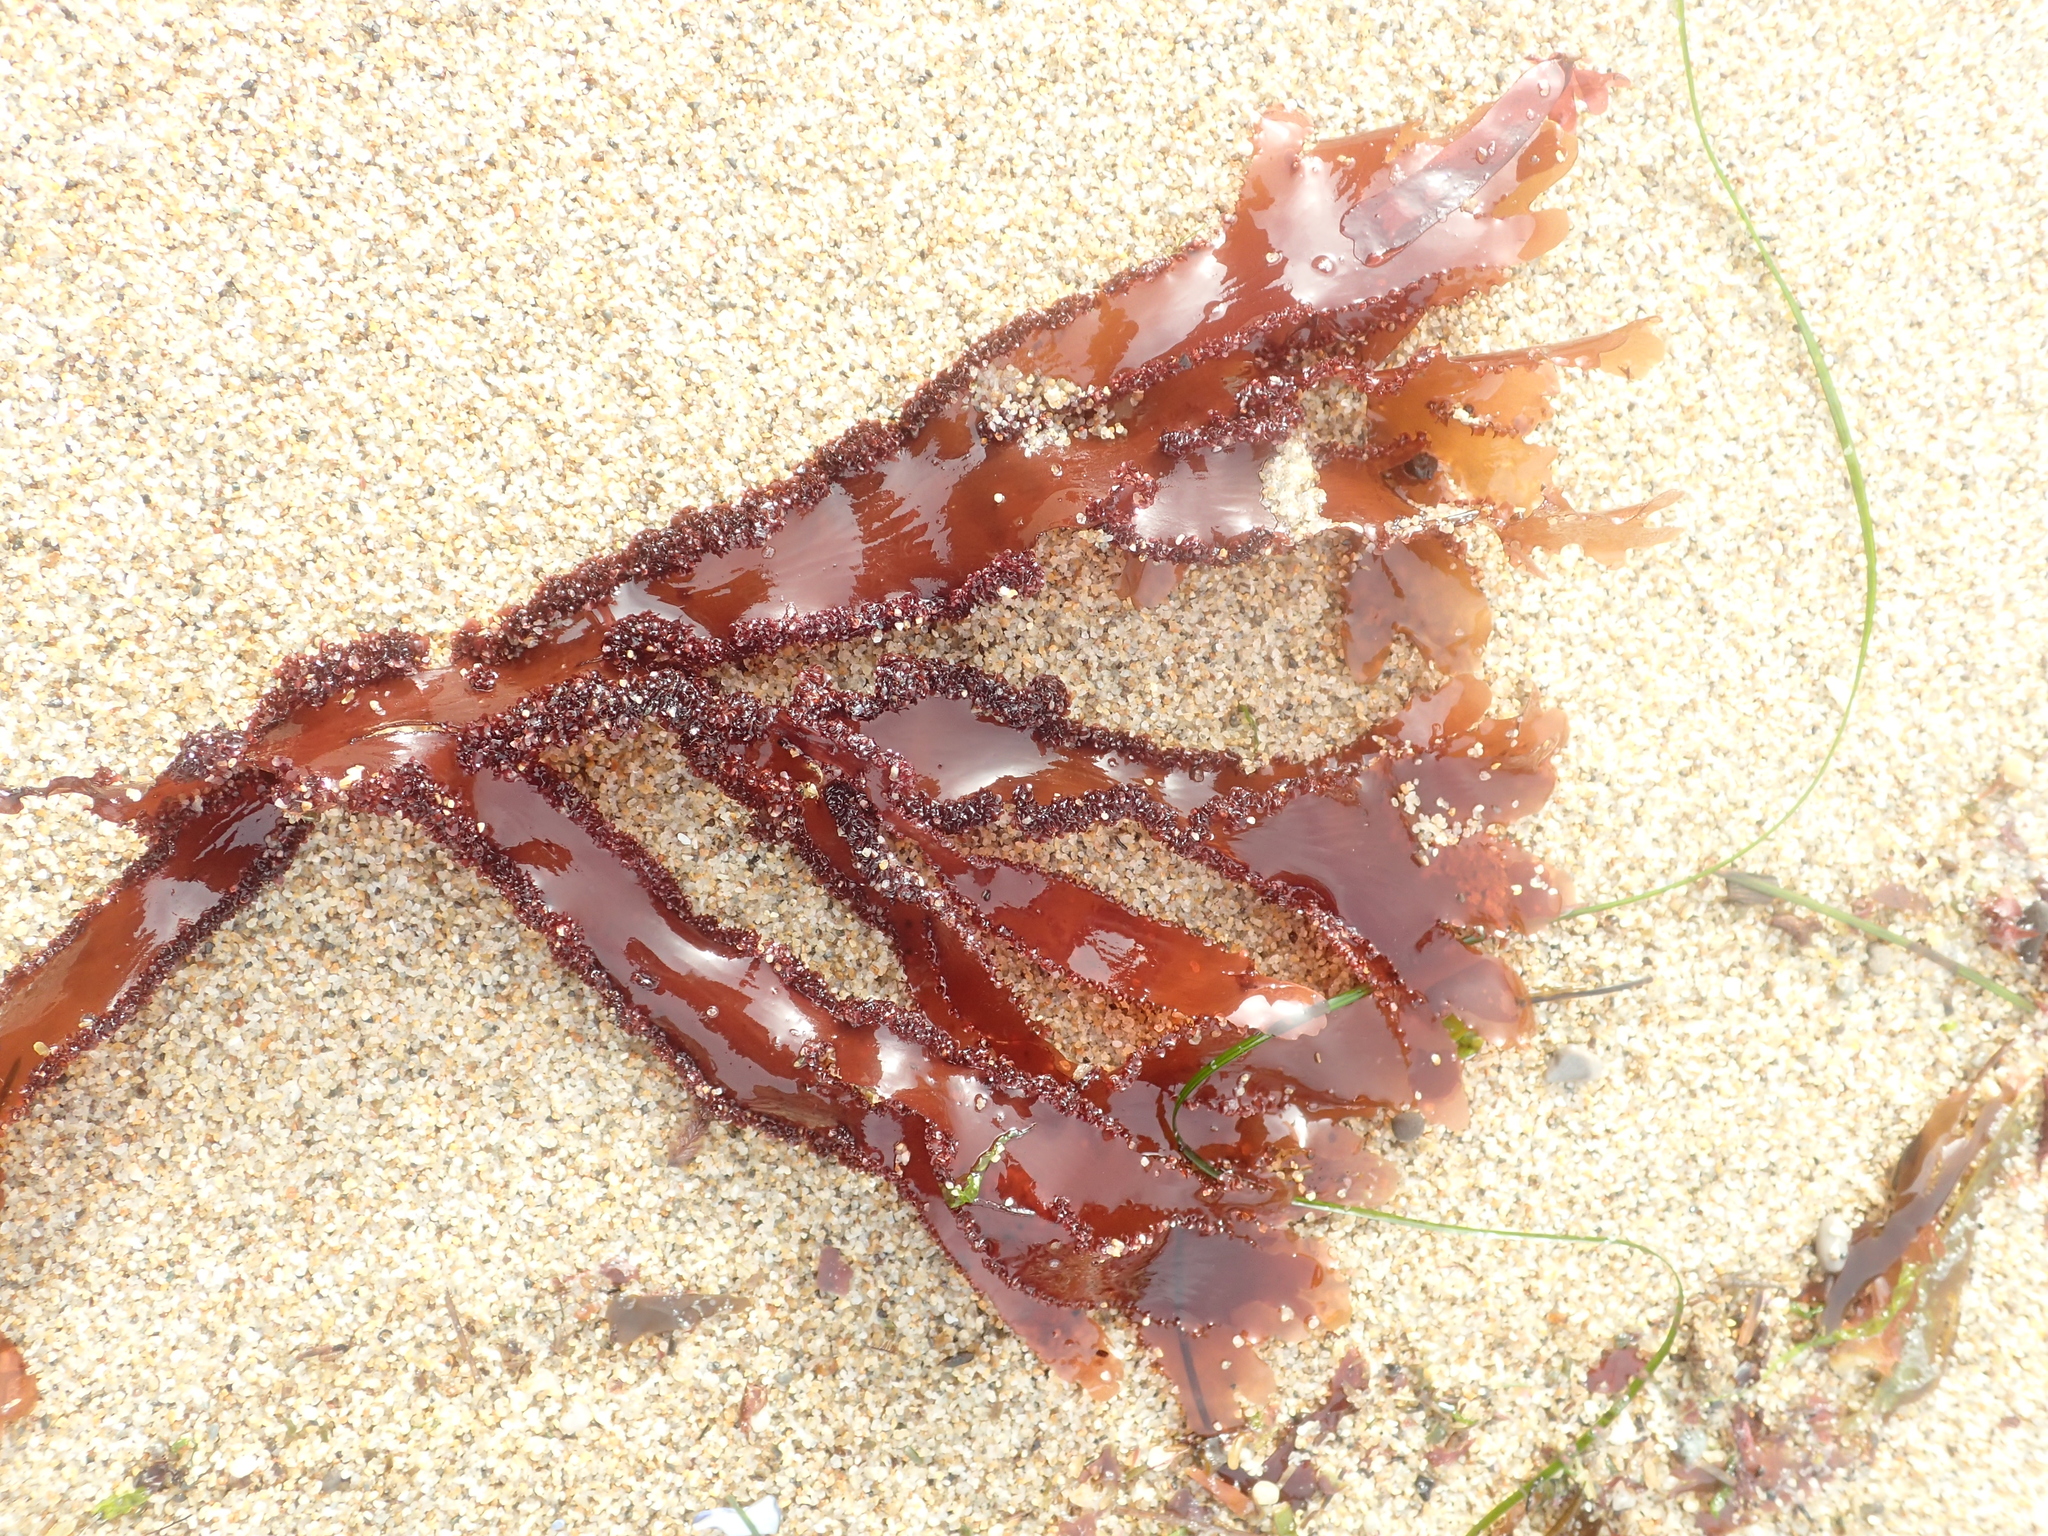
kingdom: Plantae
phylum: Rhodophyta
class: Florideophyceae
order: Ceramiales
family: Delesseriaceae
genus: Cryptopleura
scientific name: Cryptopleura ruprechtiana
